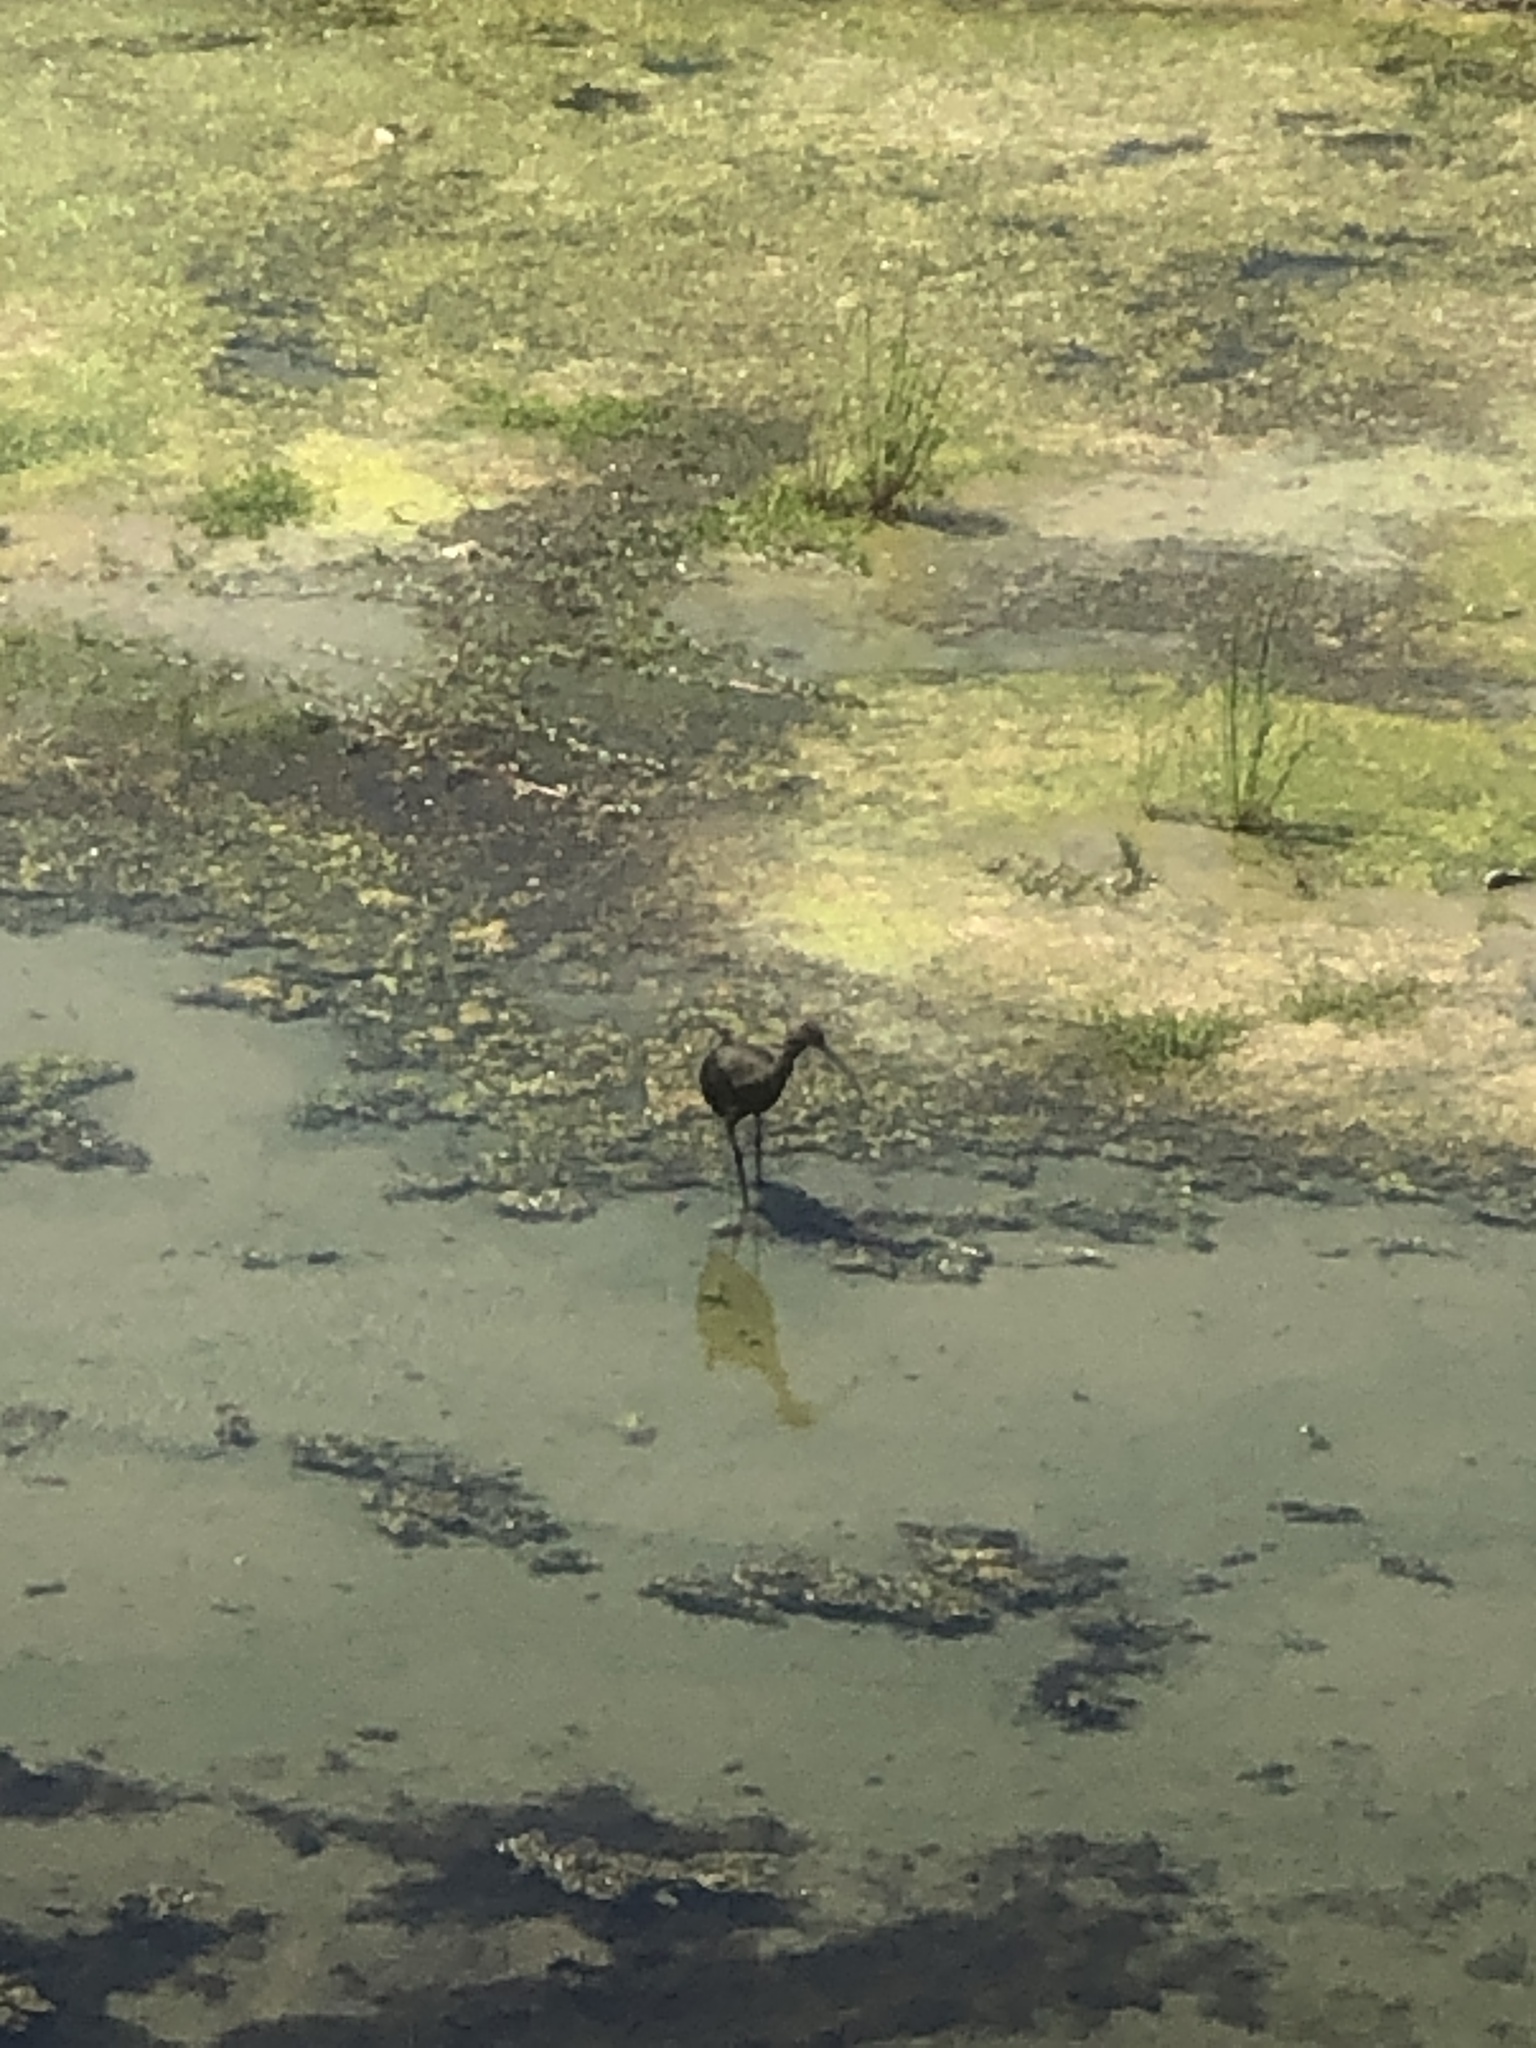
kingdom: Animalia
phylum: Chordata
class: Aves
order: Pelecaniformes
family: Threskiornithidae
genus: Plegadis
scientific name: Plegadis chihi
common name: White-faced ibis
